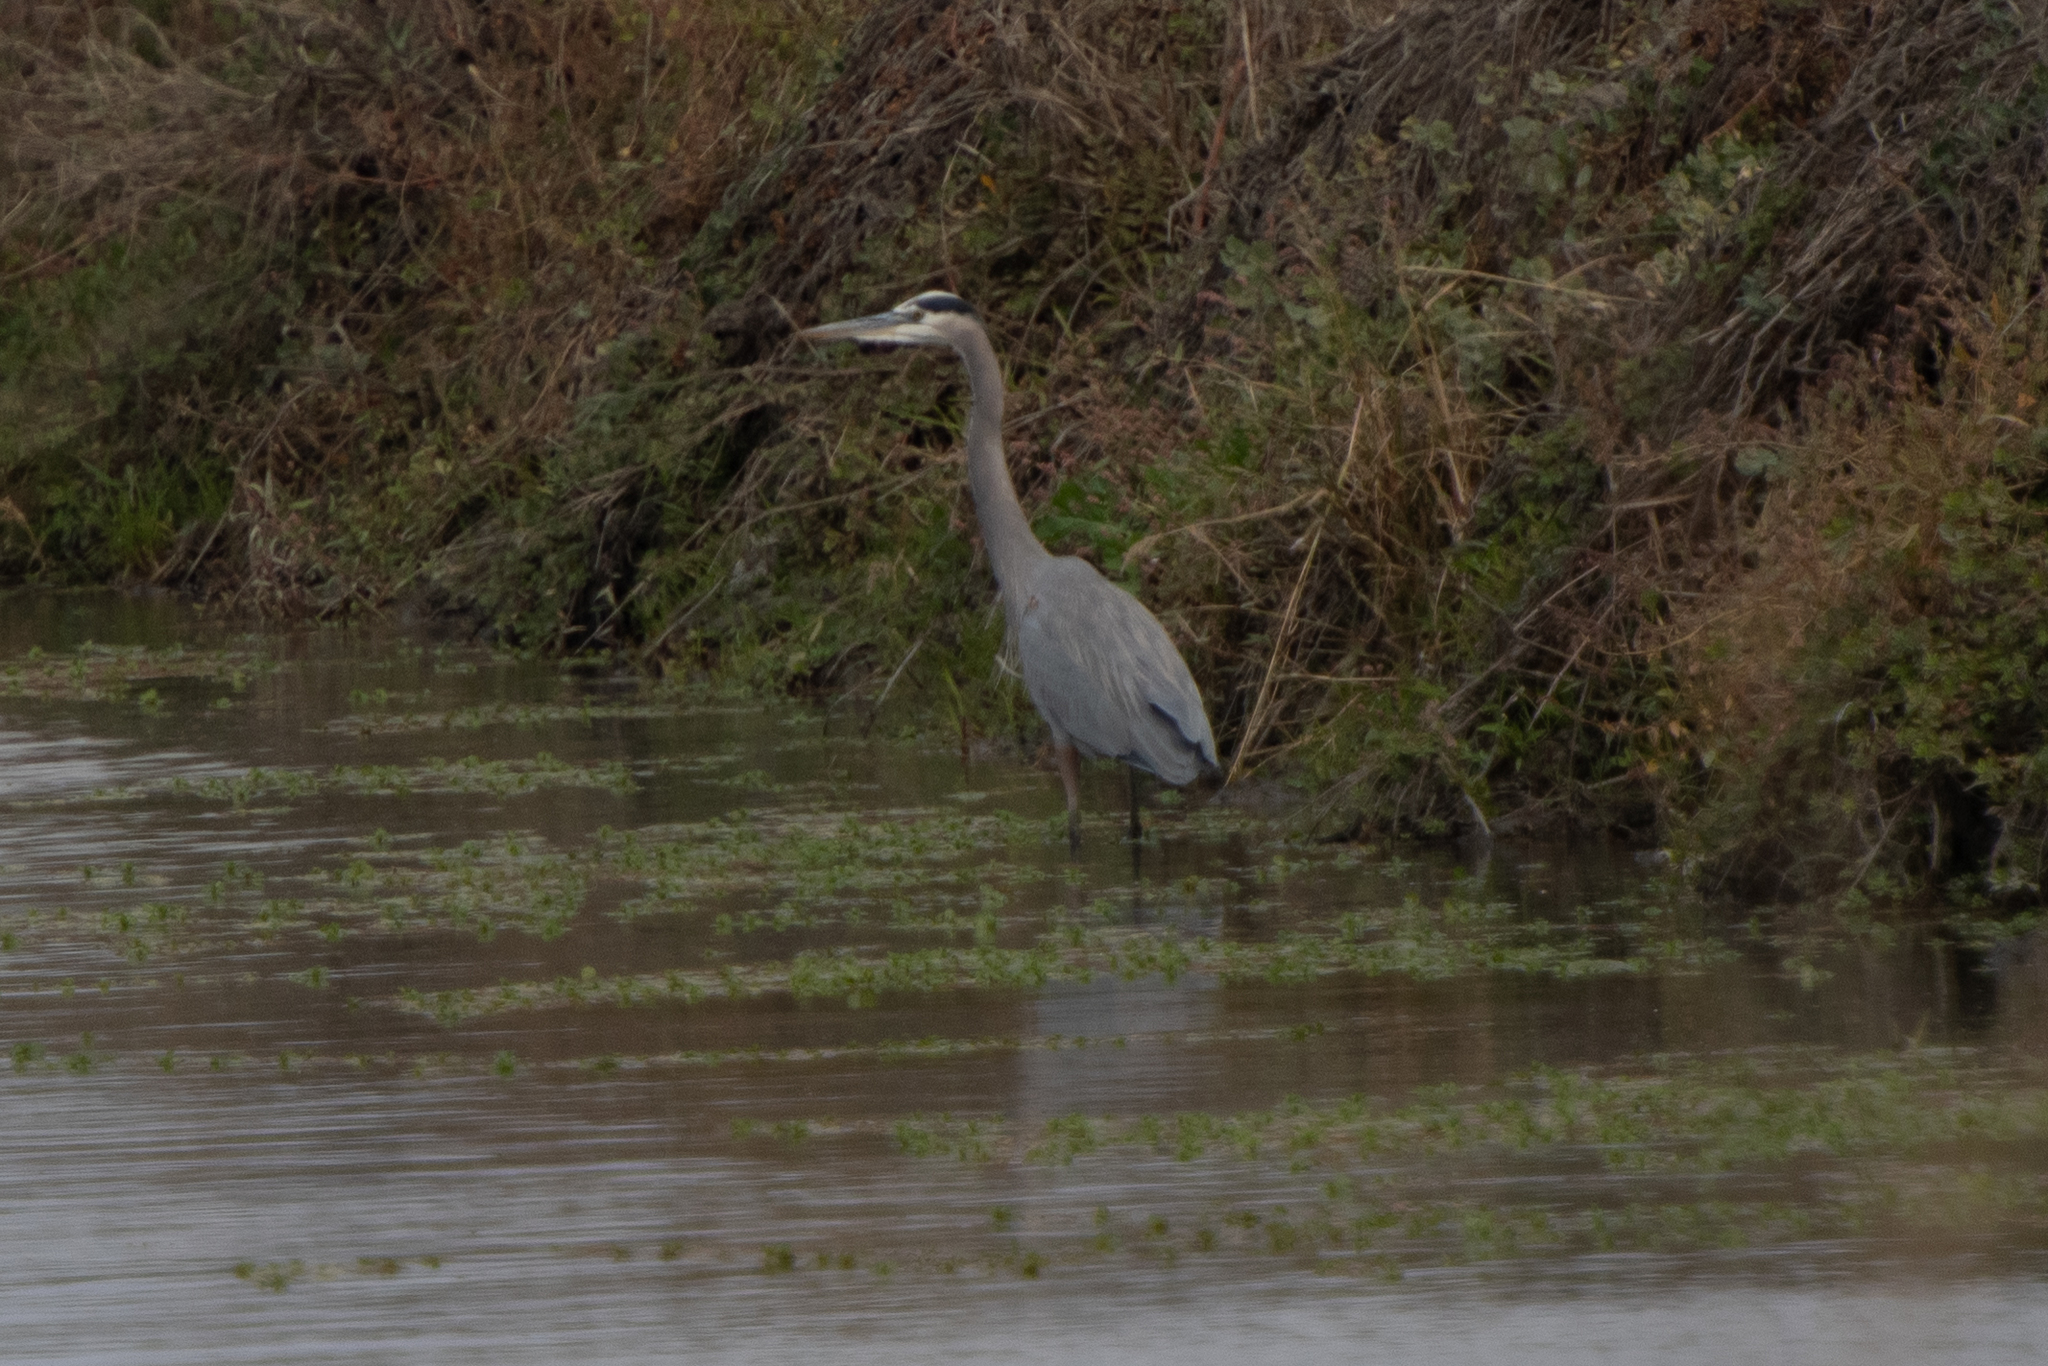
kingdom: Animalia
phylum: Chordata
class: Aves
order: Pelecaniformes
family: Ardeidae
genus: Ardea
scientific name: Ardea herodias
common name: Great blue heron
